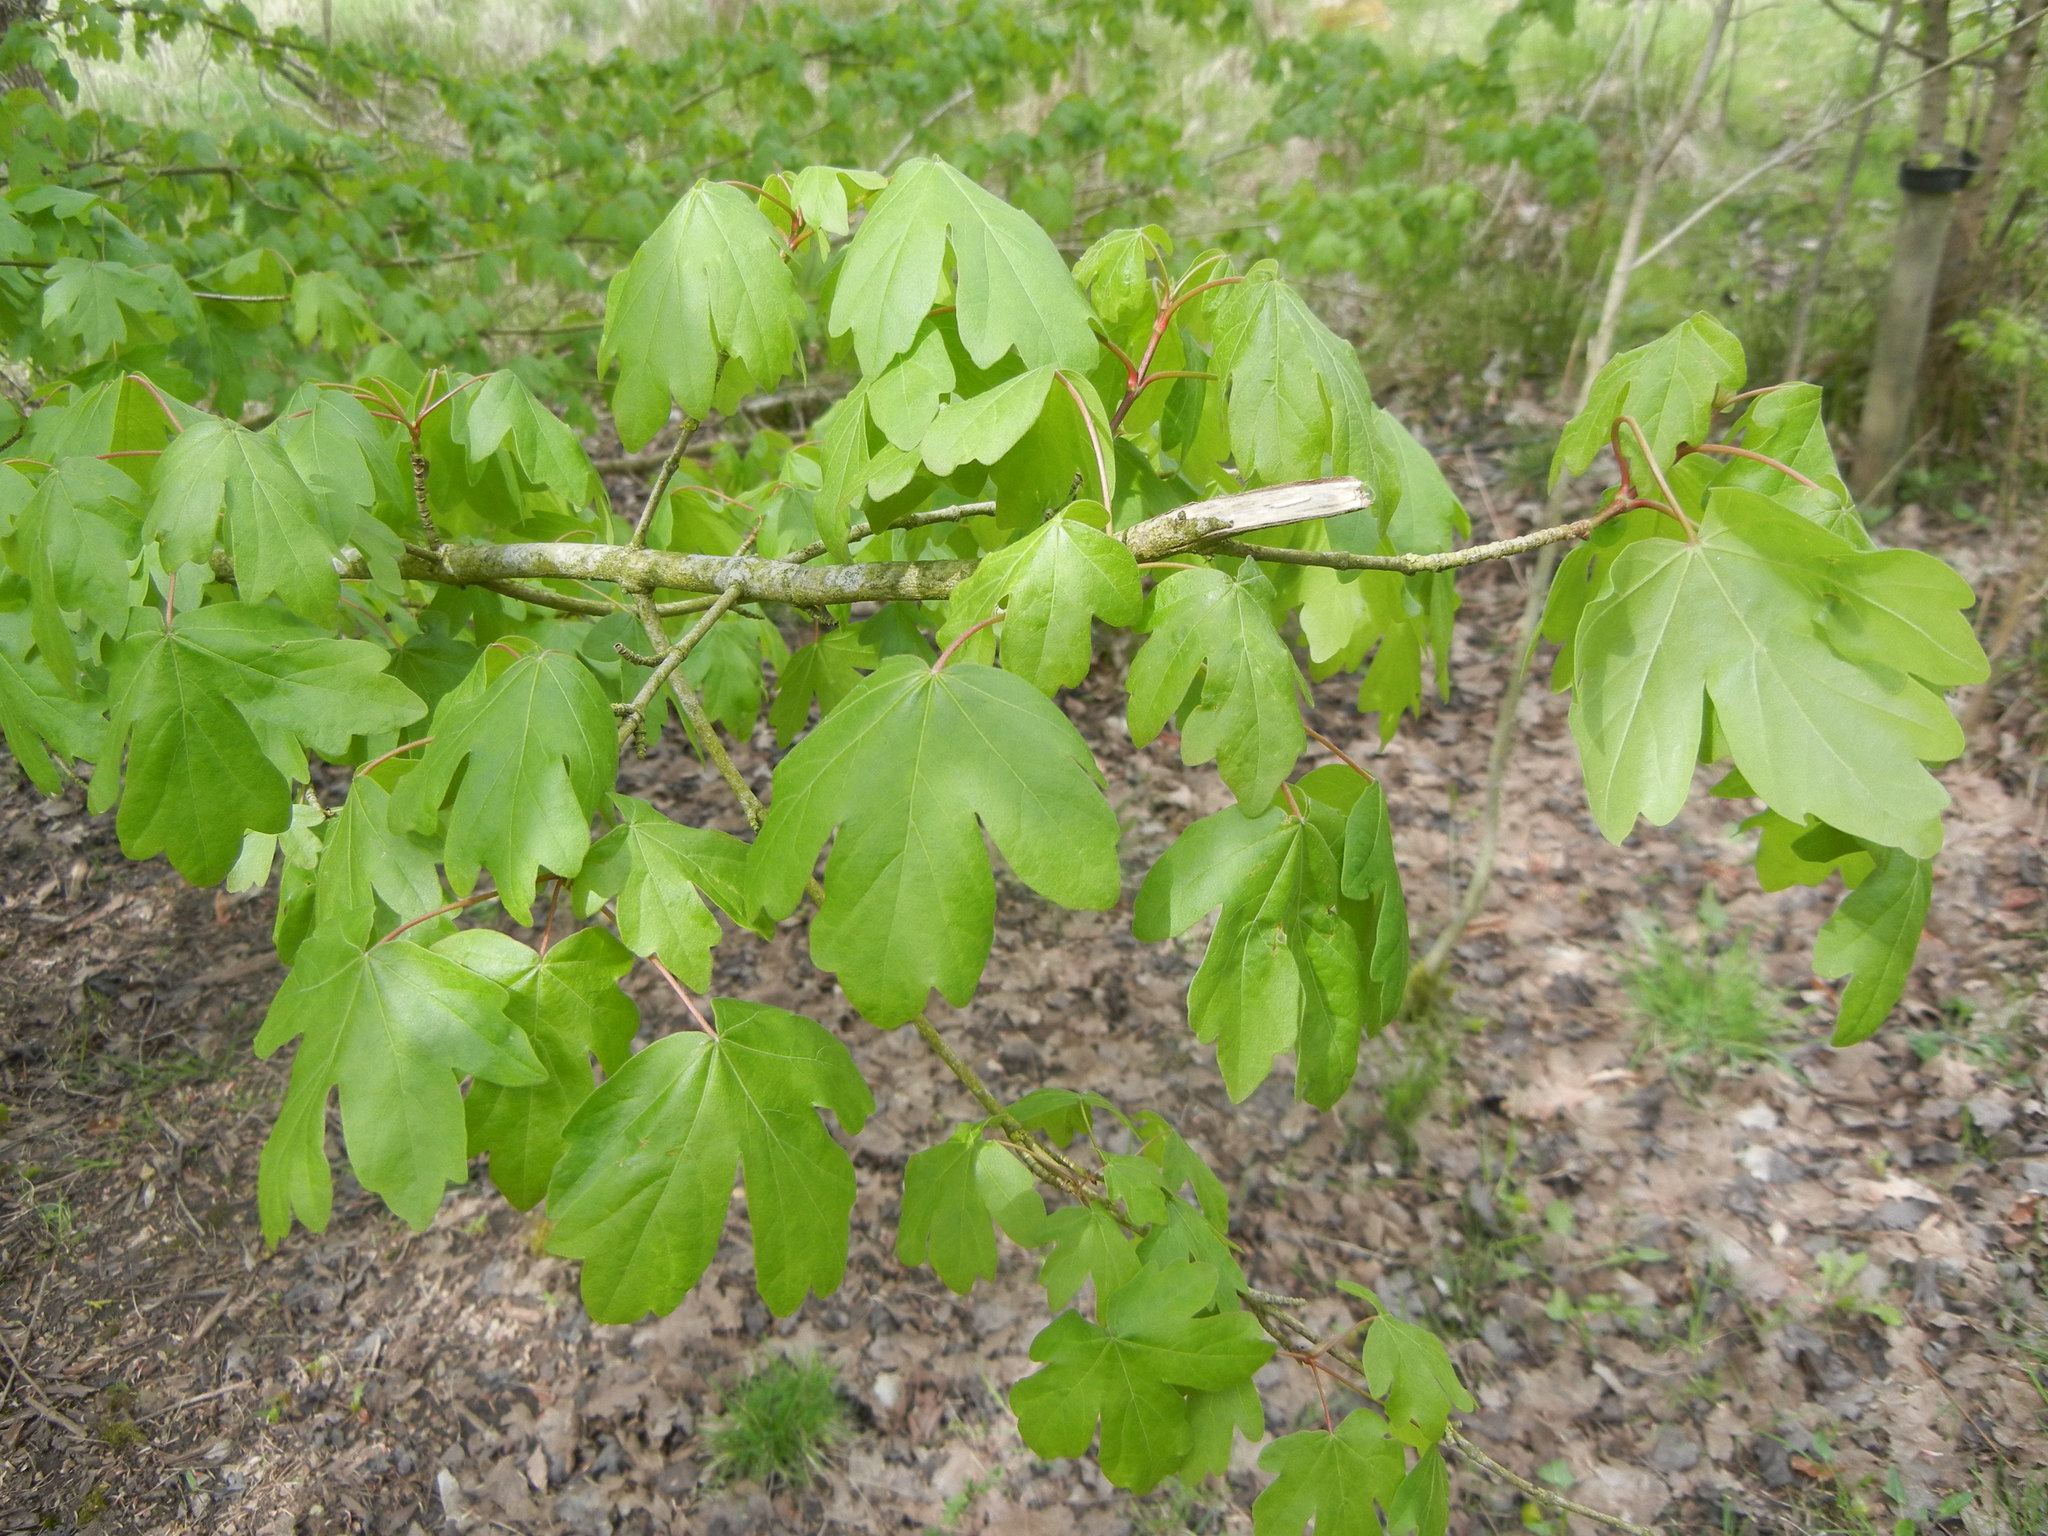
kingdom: Plantae
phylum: Tracheophyta
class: Magnoliopsida
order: Sapindales
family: Sapindaceae
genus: Acer
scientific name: Acer campestre
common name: Field maple
